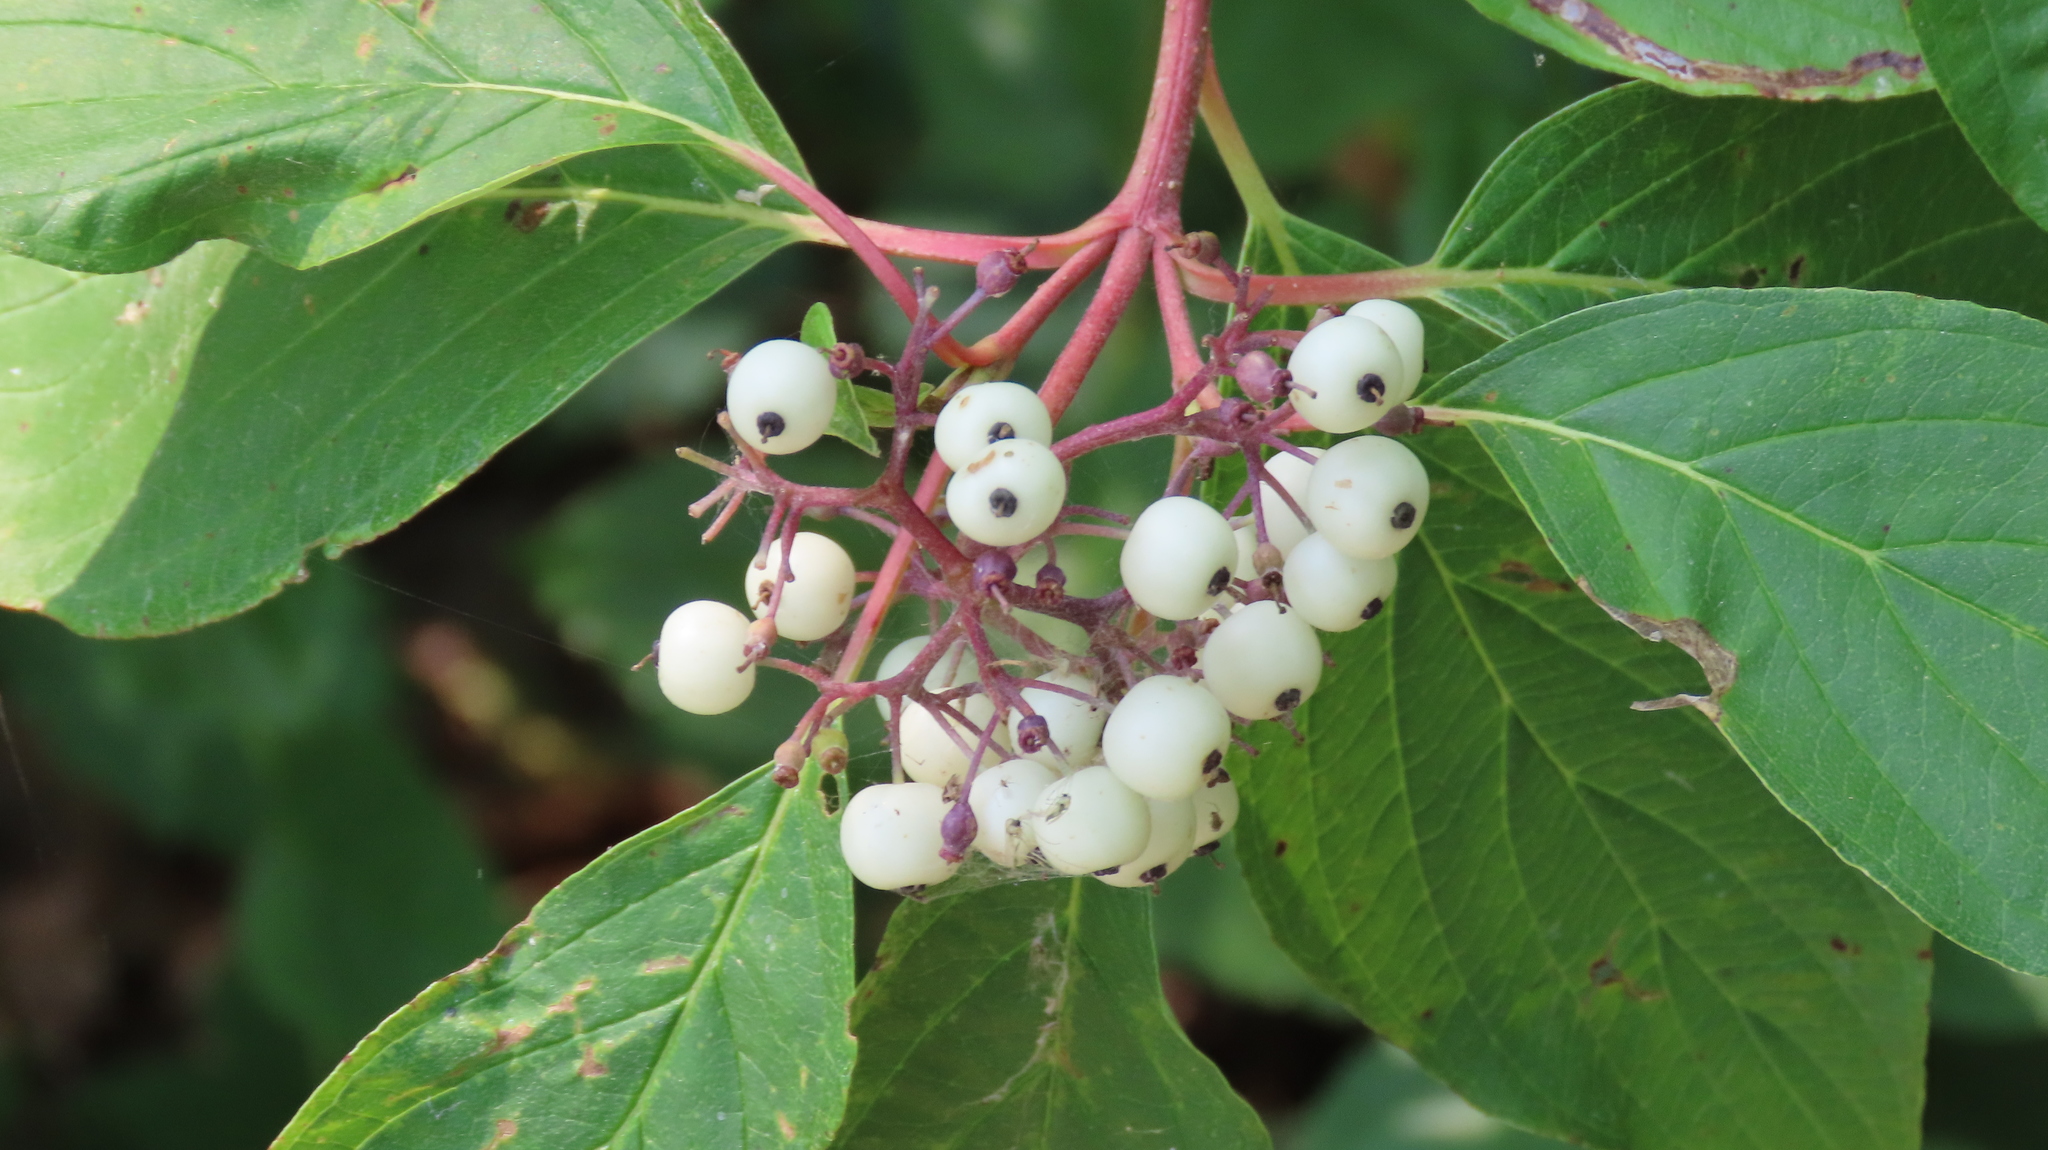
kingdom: Plantae
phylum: Tracheophyta
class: Magnoliopsida
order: Cornales
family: Cornaceae
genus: Cornus
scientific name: Cornus sericea
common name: Red-osier dogwood
